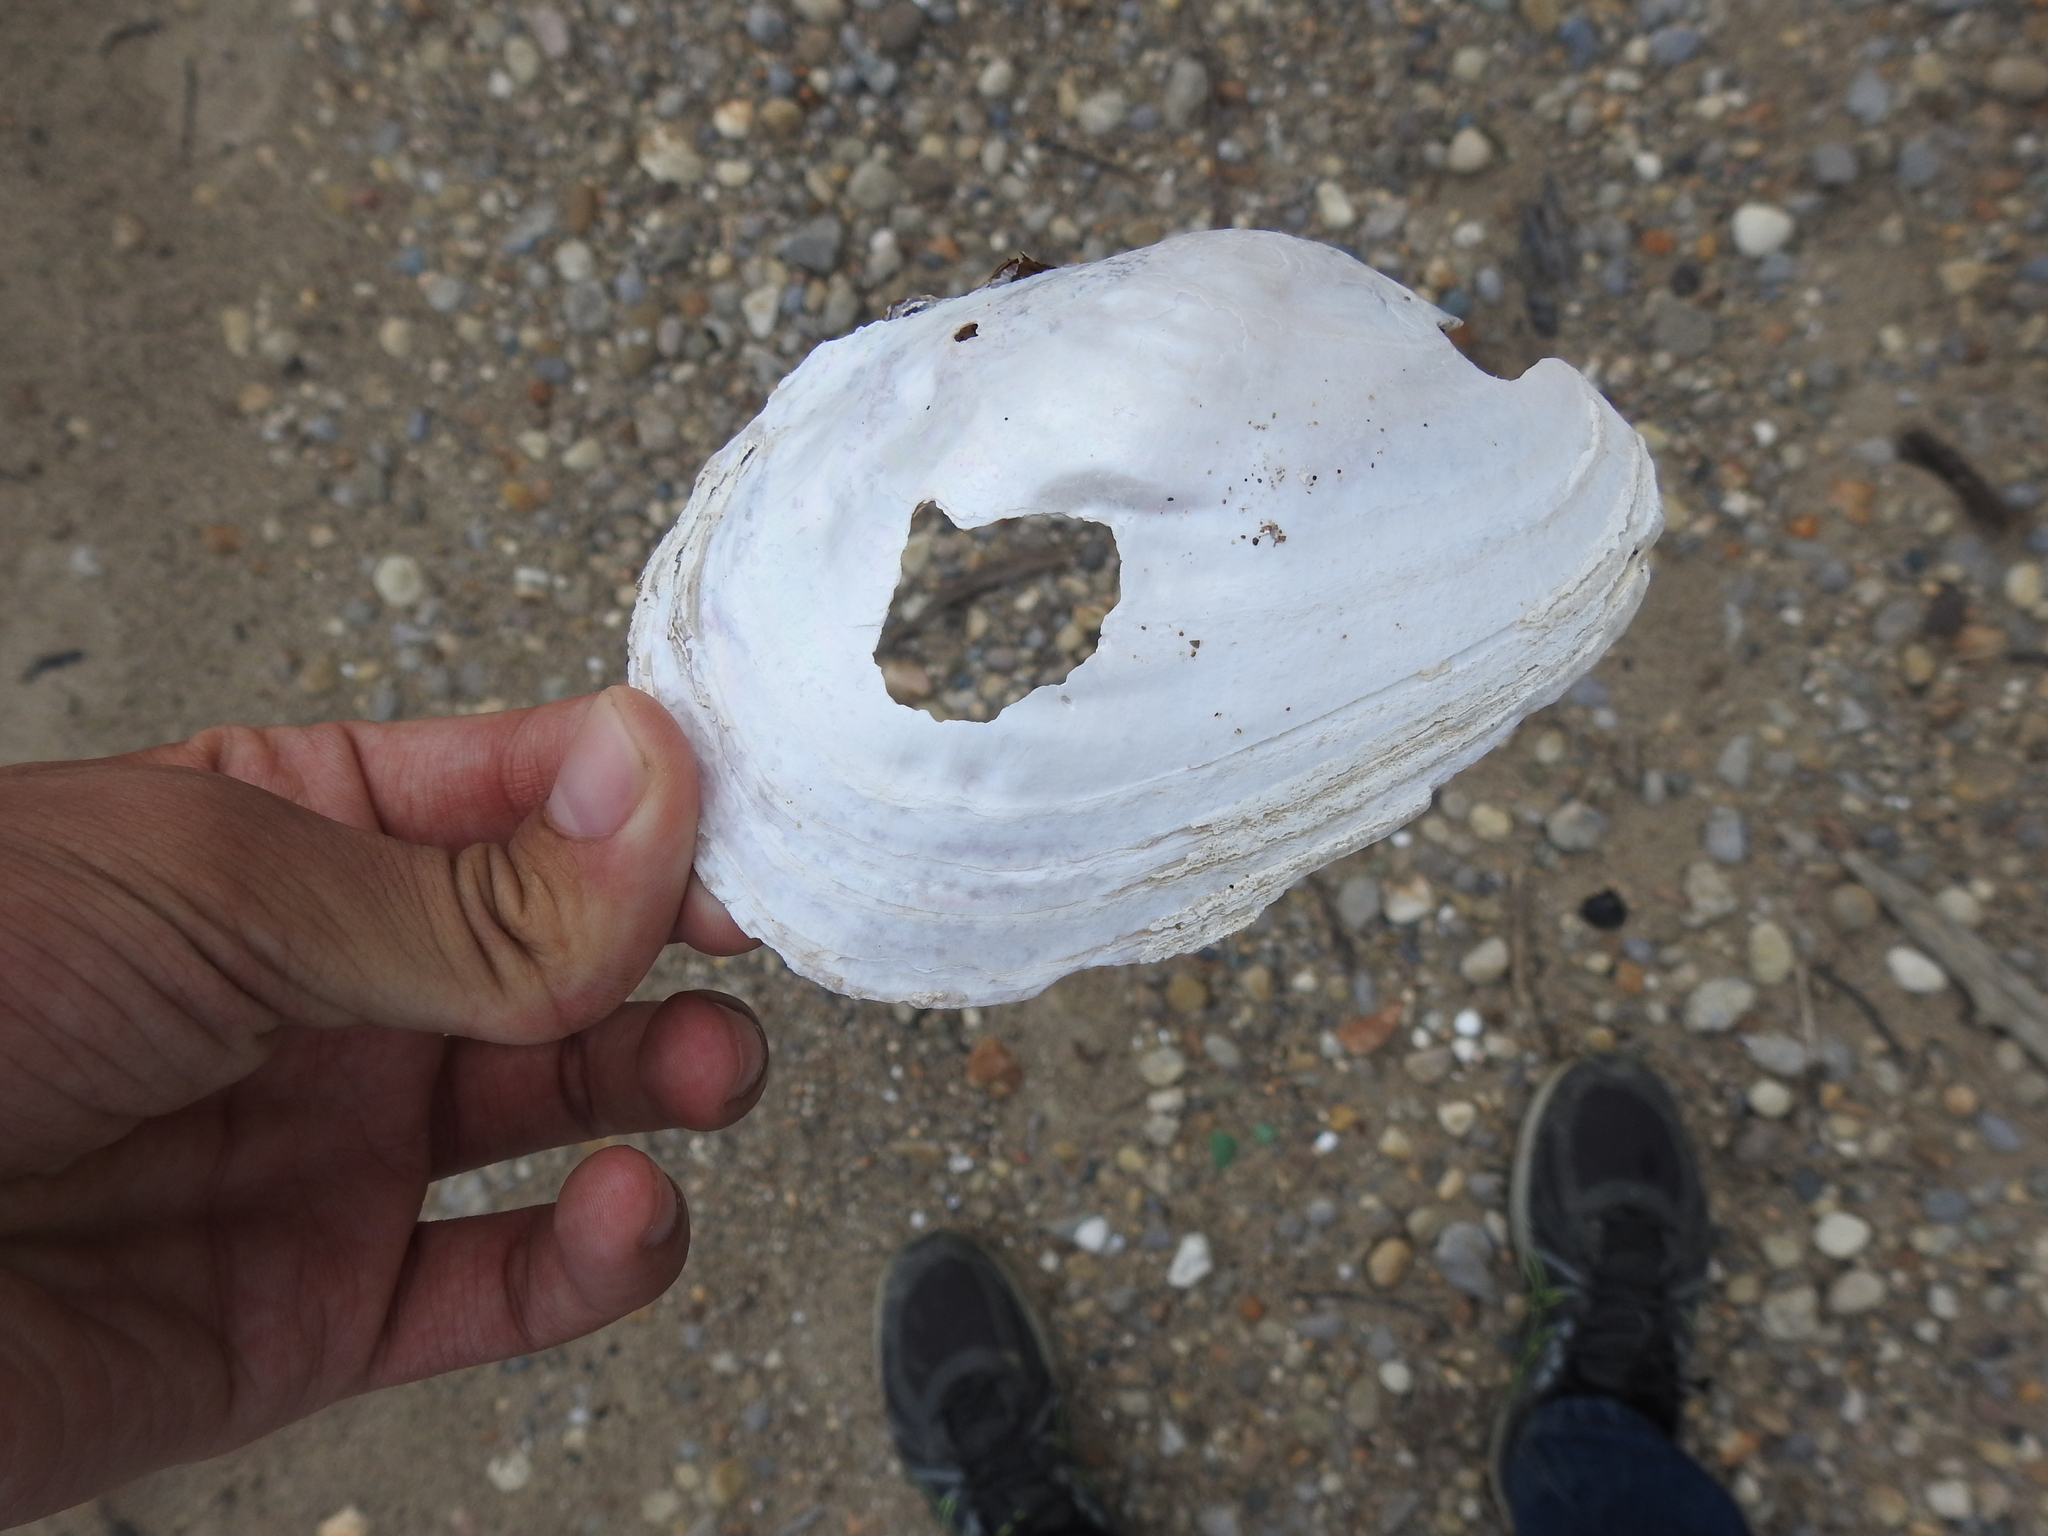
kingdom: Animalia
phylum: Mollusca
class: Bivalvia
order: Unionida
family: Unionidae
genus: Potamilus
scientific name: Potamilus alatus
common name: Pink heelsplitter
